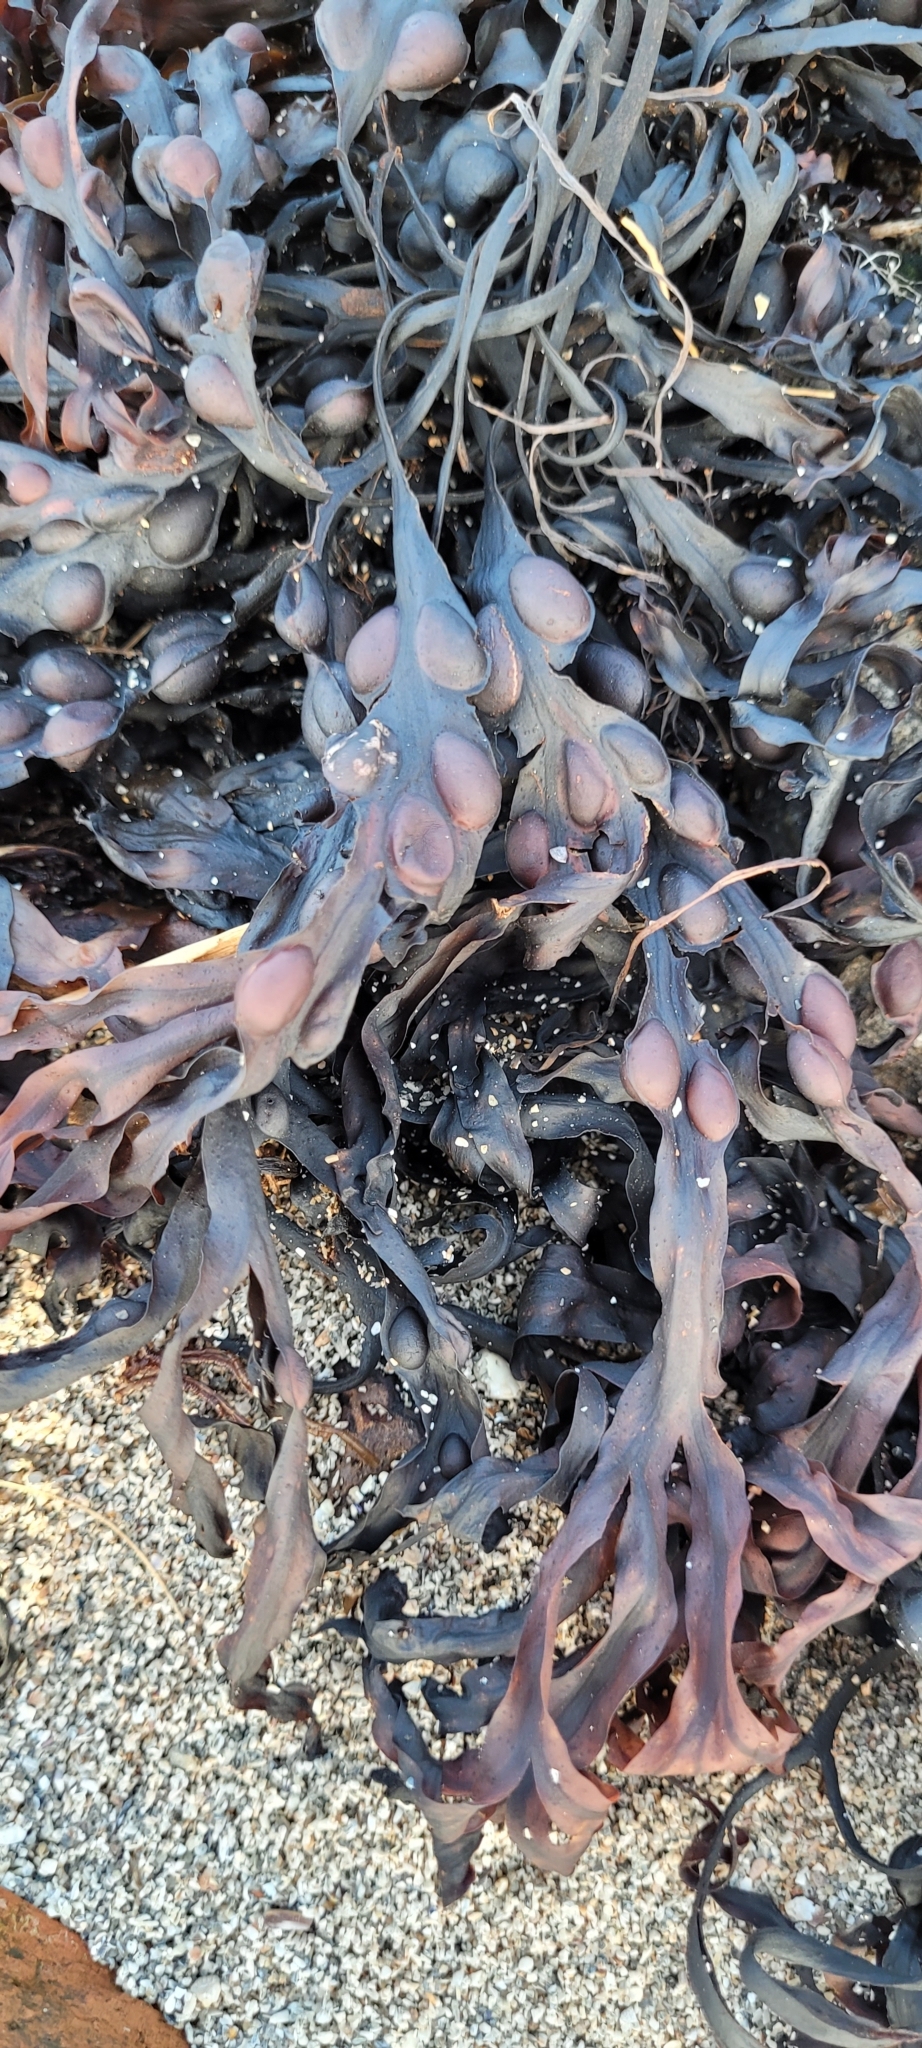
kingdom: Chromista
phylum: Ochrophyta
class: Phaeophyceae
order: Fucales
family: Fucaceae
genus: Fucus
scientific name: Fucus vesiculosus
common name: Bladder wrack
